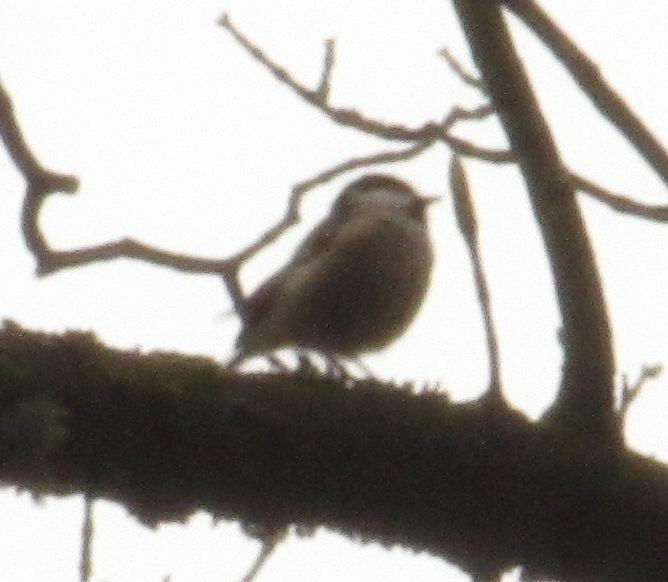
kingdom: Animalia
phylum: Chordata
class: Aves
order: Passeriformes
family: Paridae
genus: Periparus
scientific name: Periparus ater
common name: Coal tit
